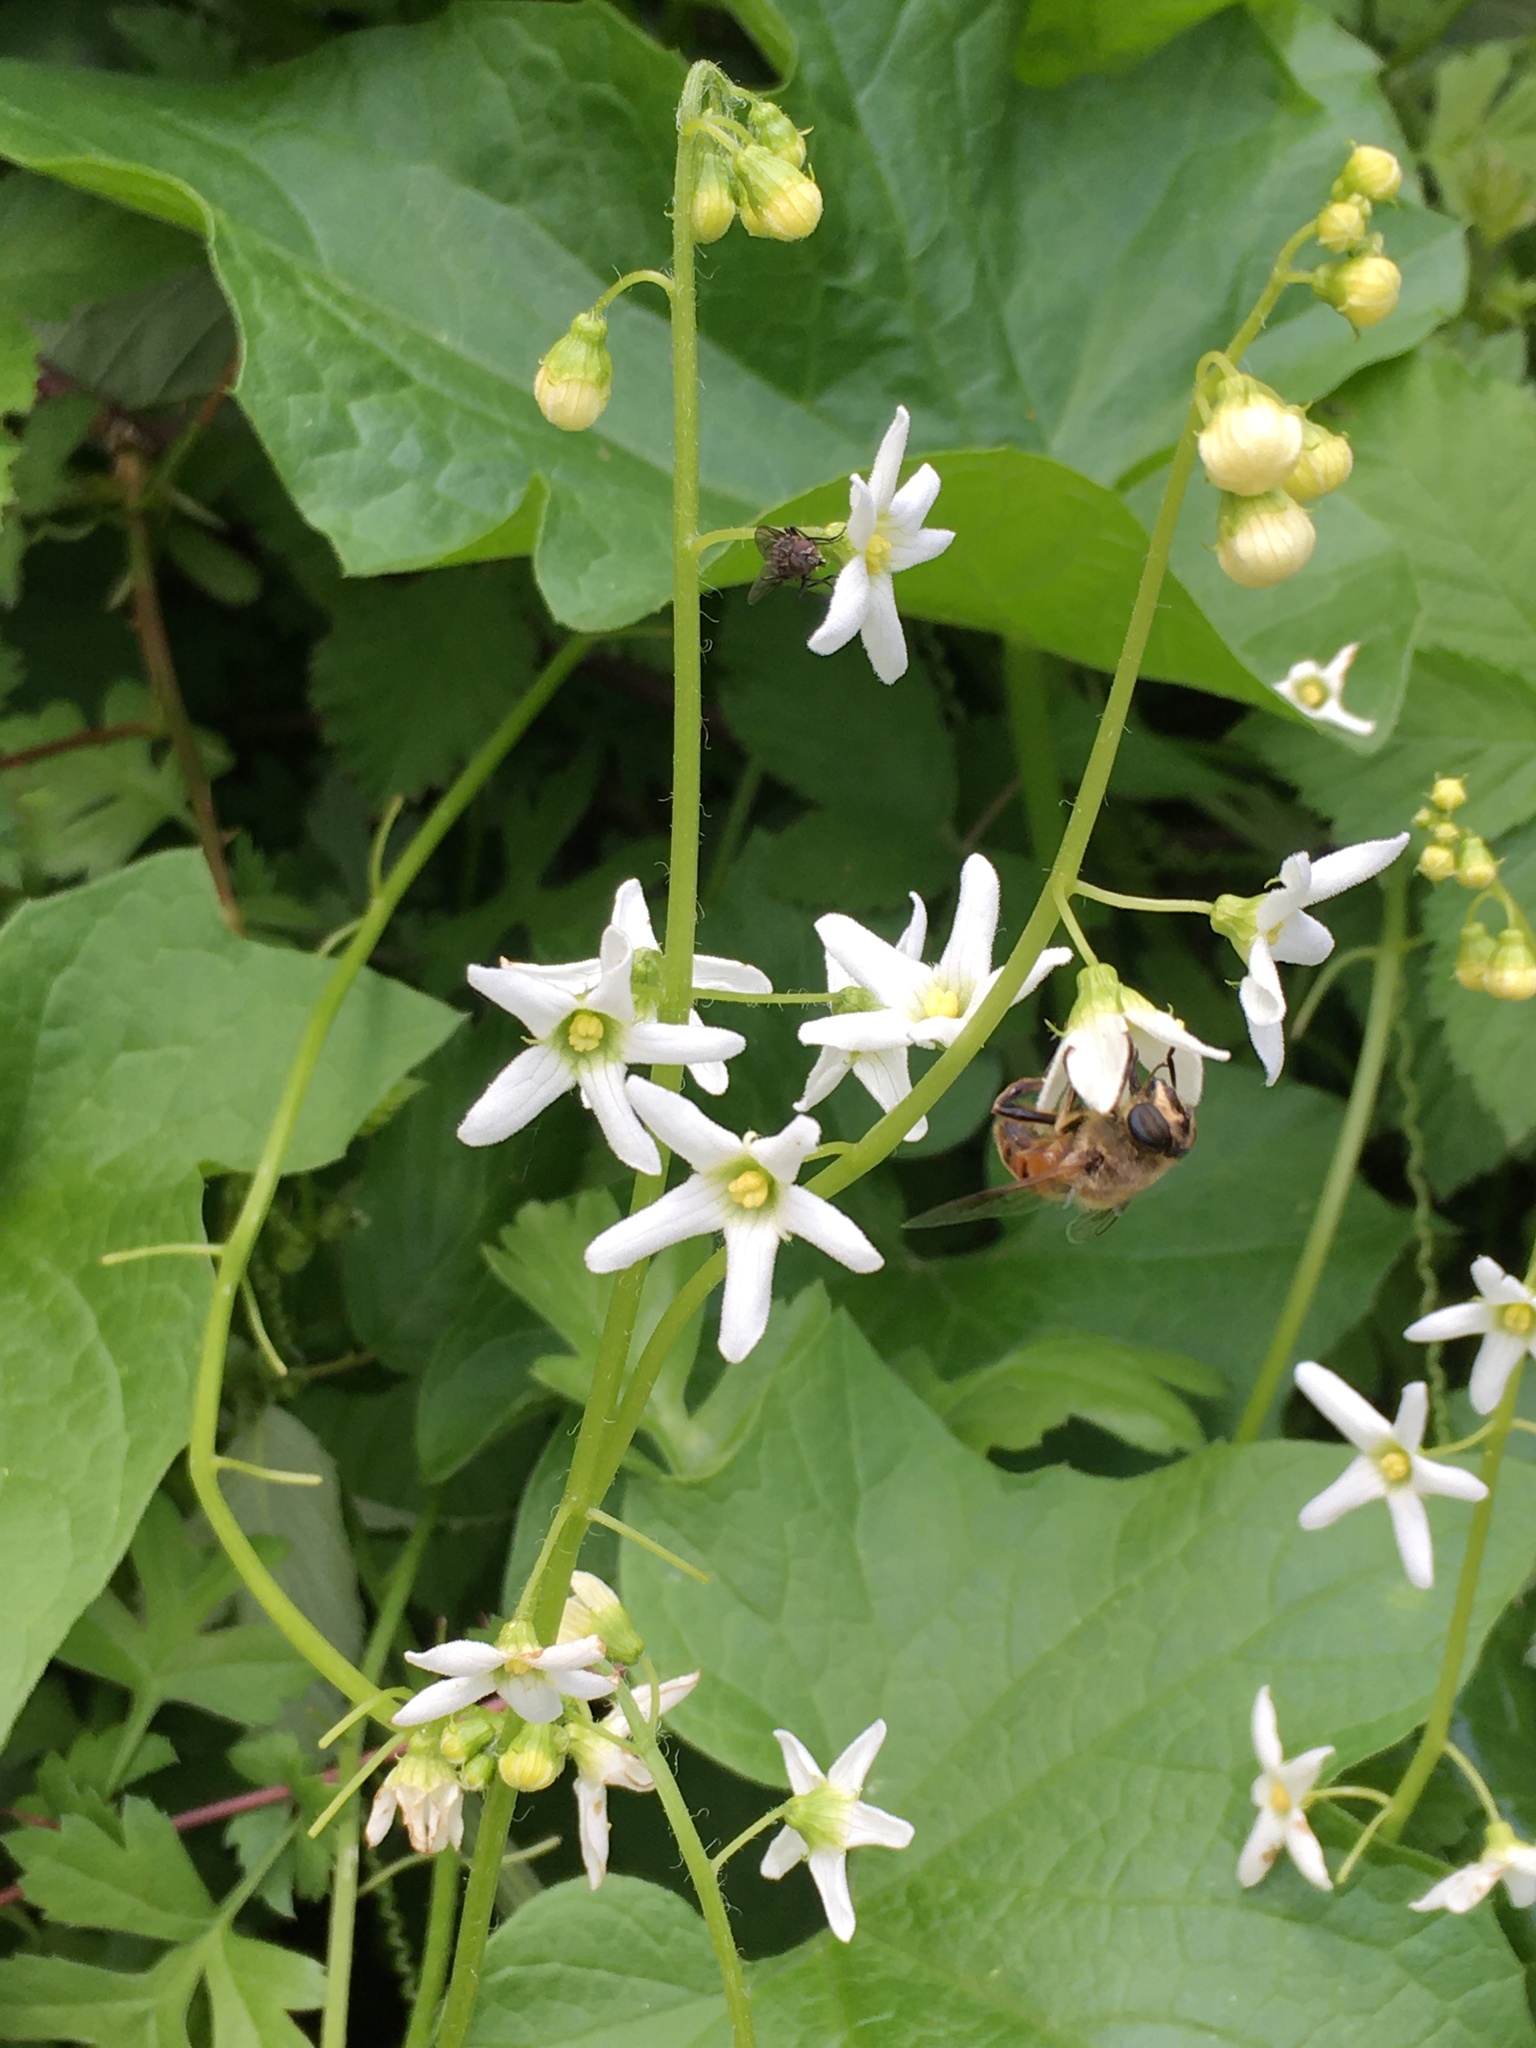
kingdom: Plantae
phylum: Tracheophyta
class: Magnoliopsida
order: Cucurbitales
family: Cucurbitaceae
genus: Marah
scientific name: Marah oregana
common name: Coastal manroot
